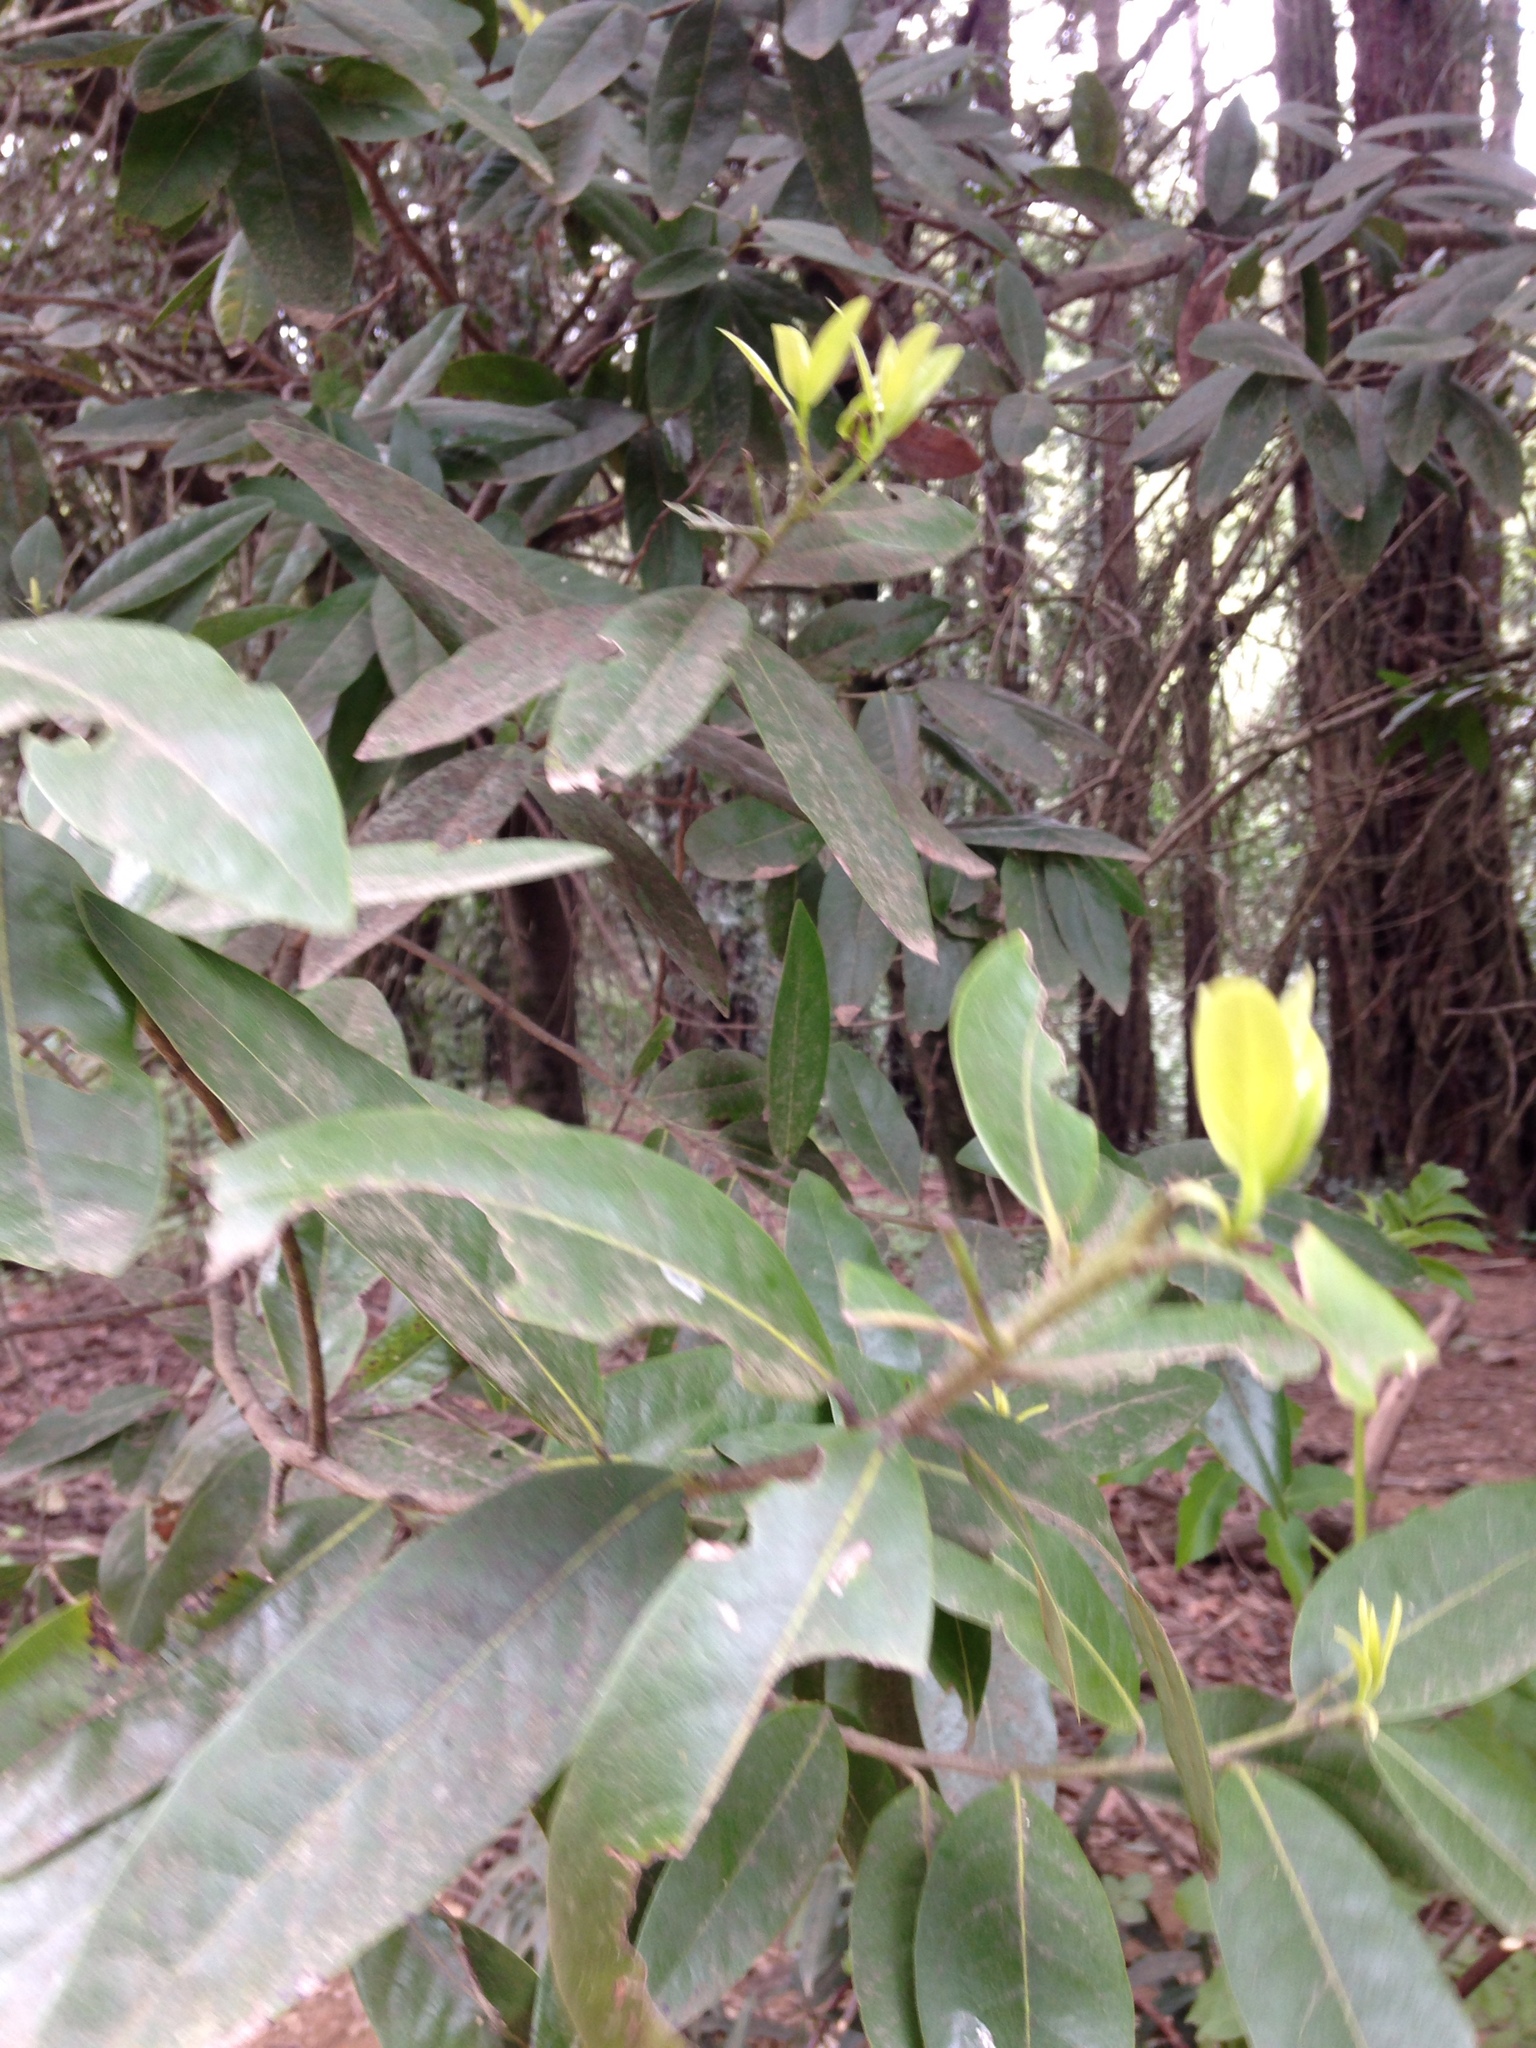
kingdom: Plantae
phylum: Tracheophyta
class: Magnoliopsida
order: Laurales
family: Lauraceae
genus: Umbellularia
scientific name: Umbellularia californica
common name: California bay
